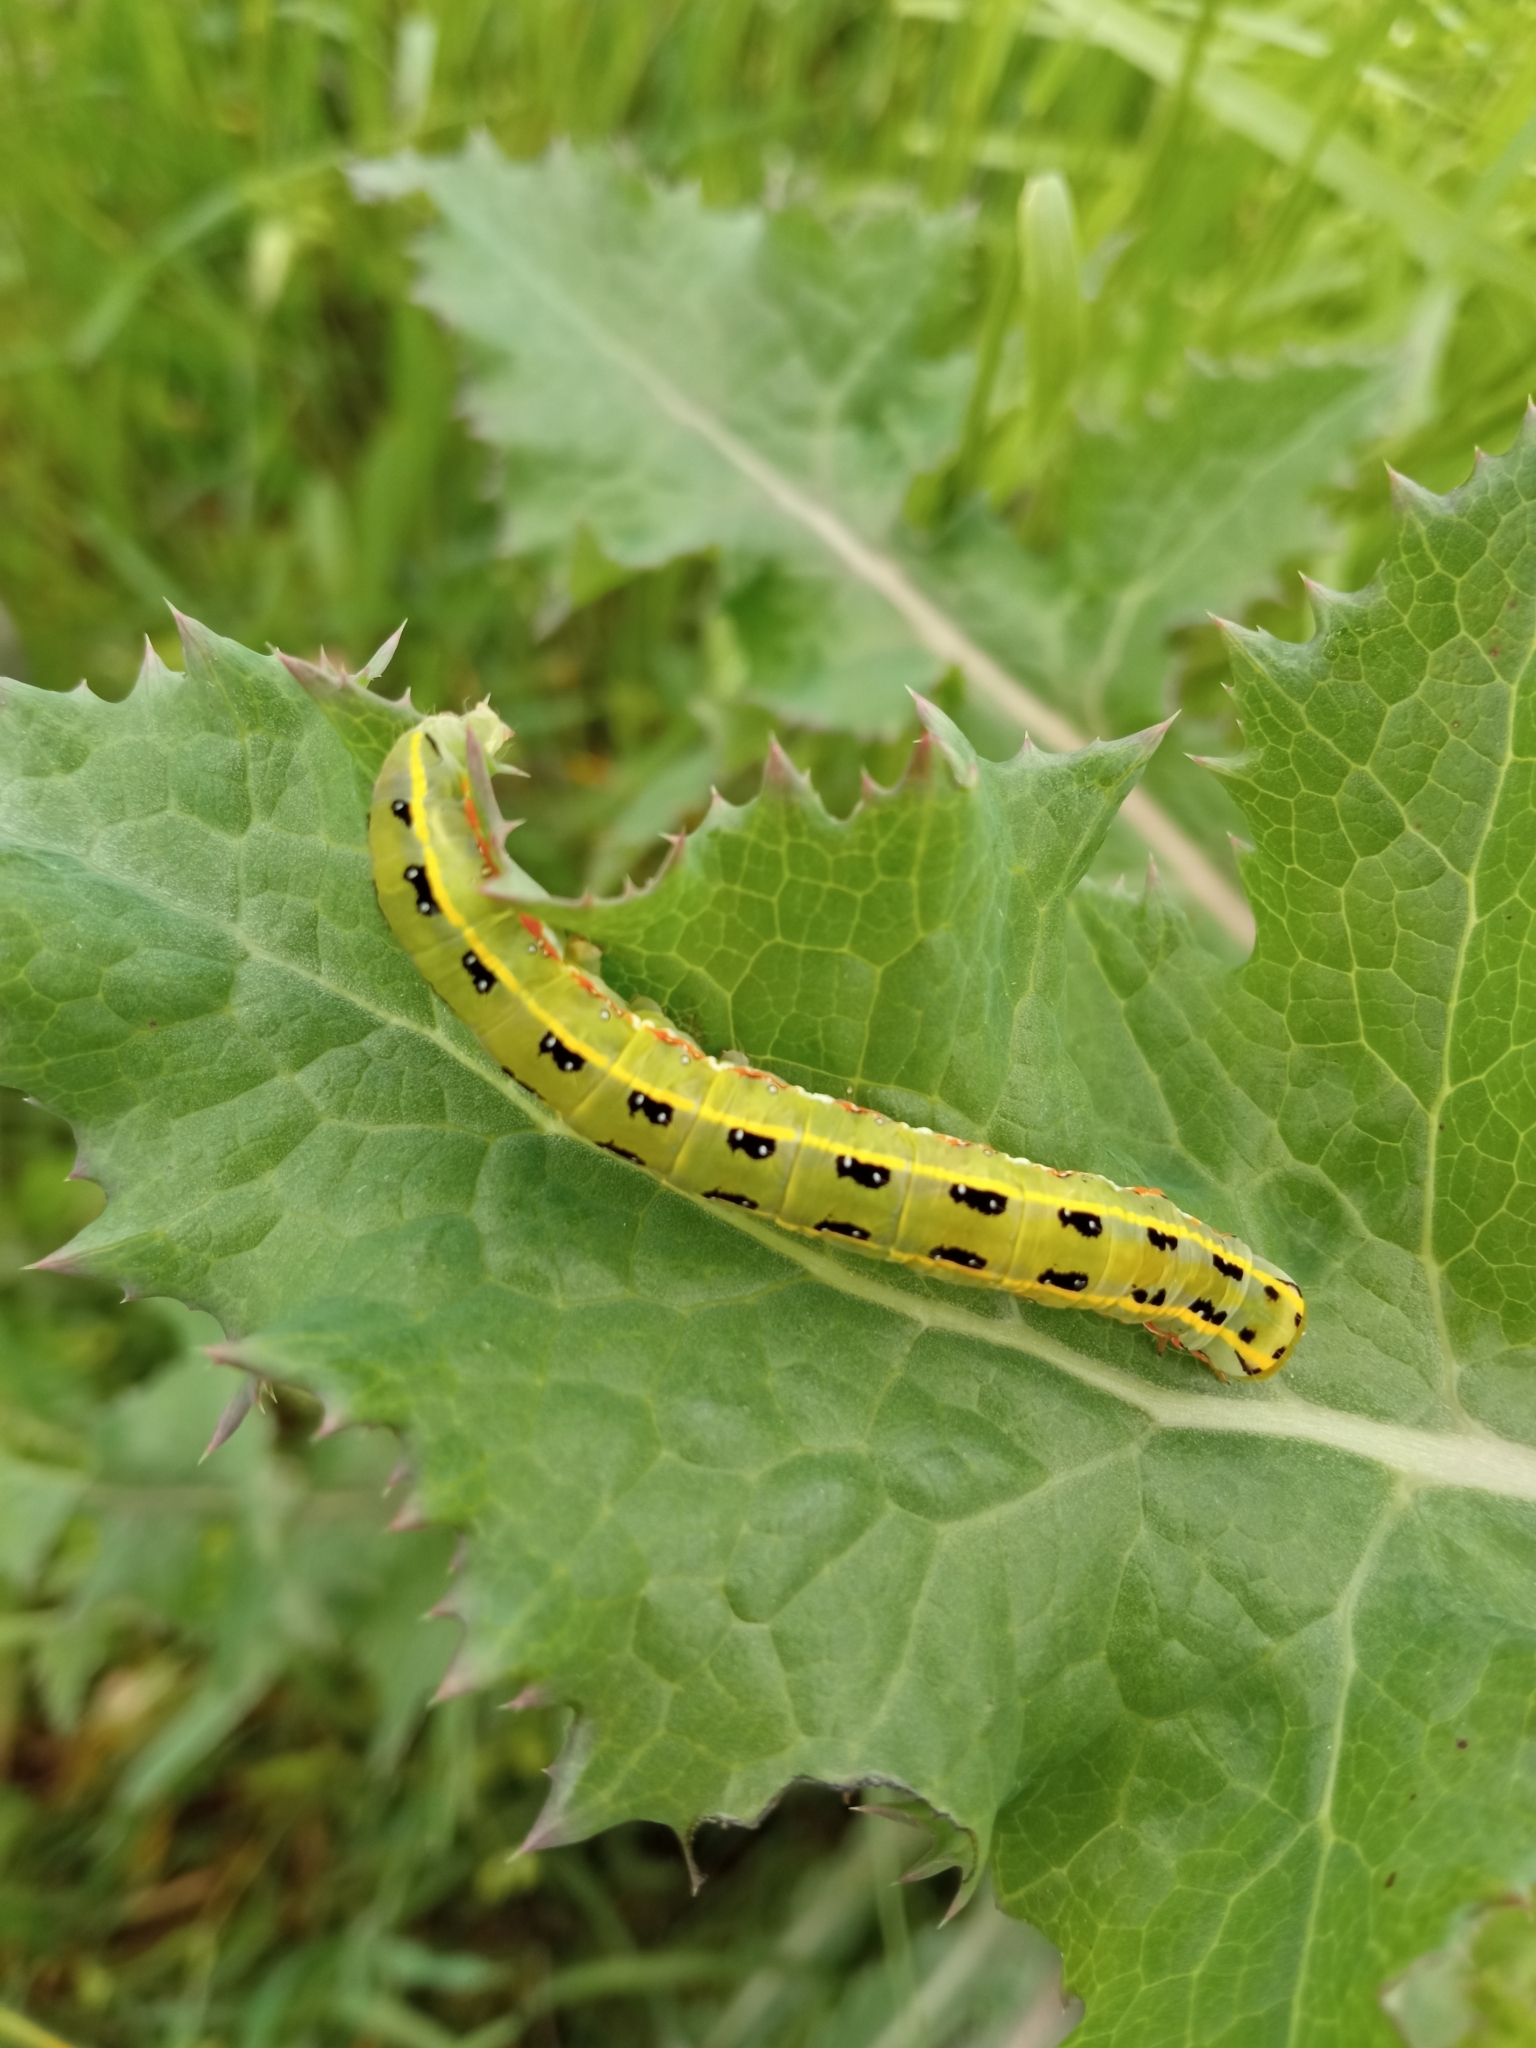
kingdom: Animalia
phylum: Arthropoda
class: Insecta
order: Lepidoptera
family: Noctuidae
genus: Xylena
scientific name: Xylena exsoleta
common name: Sword-grass
